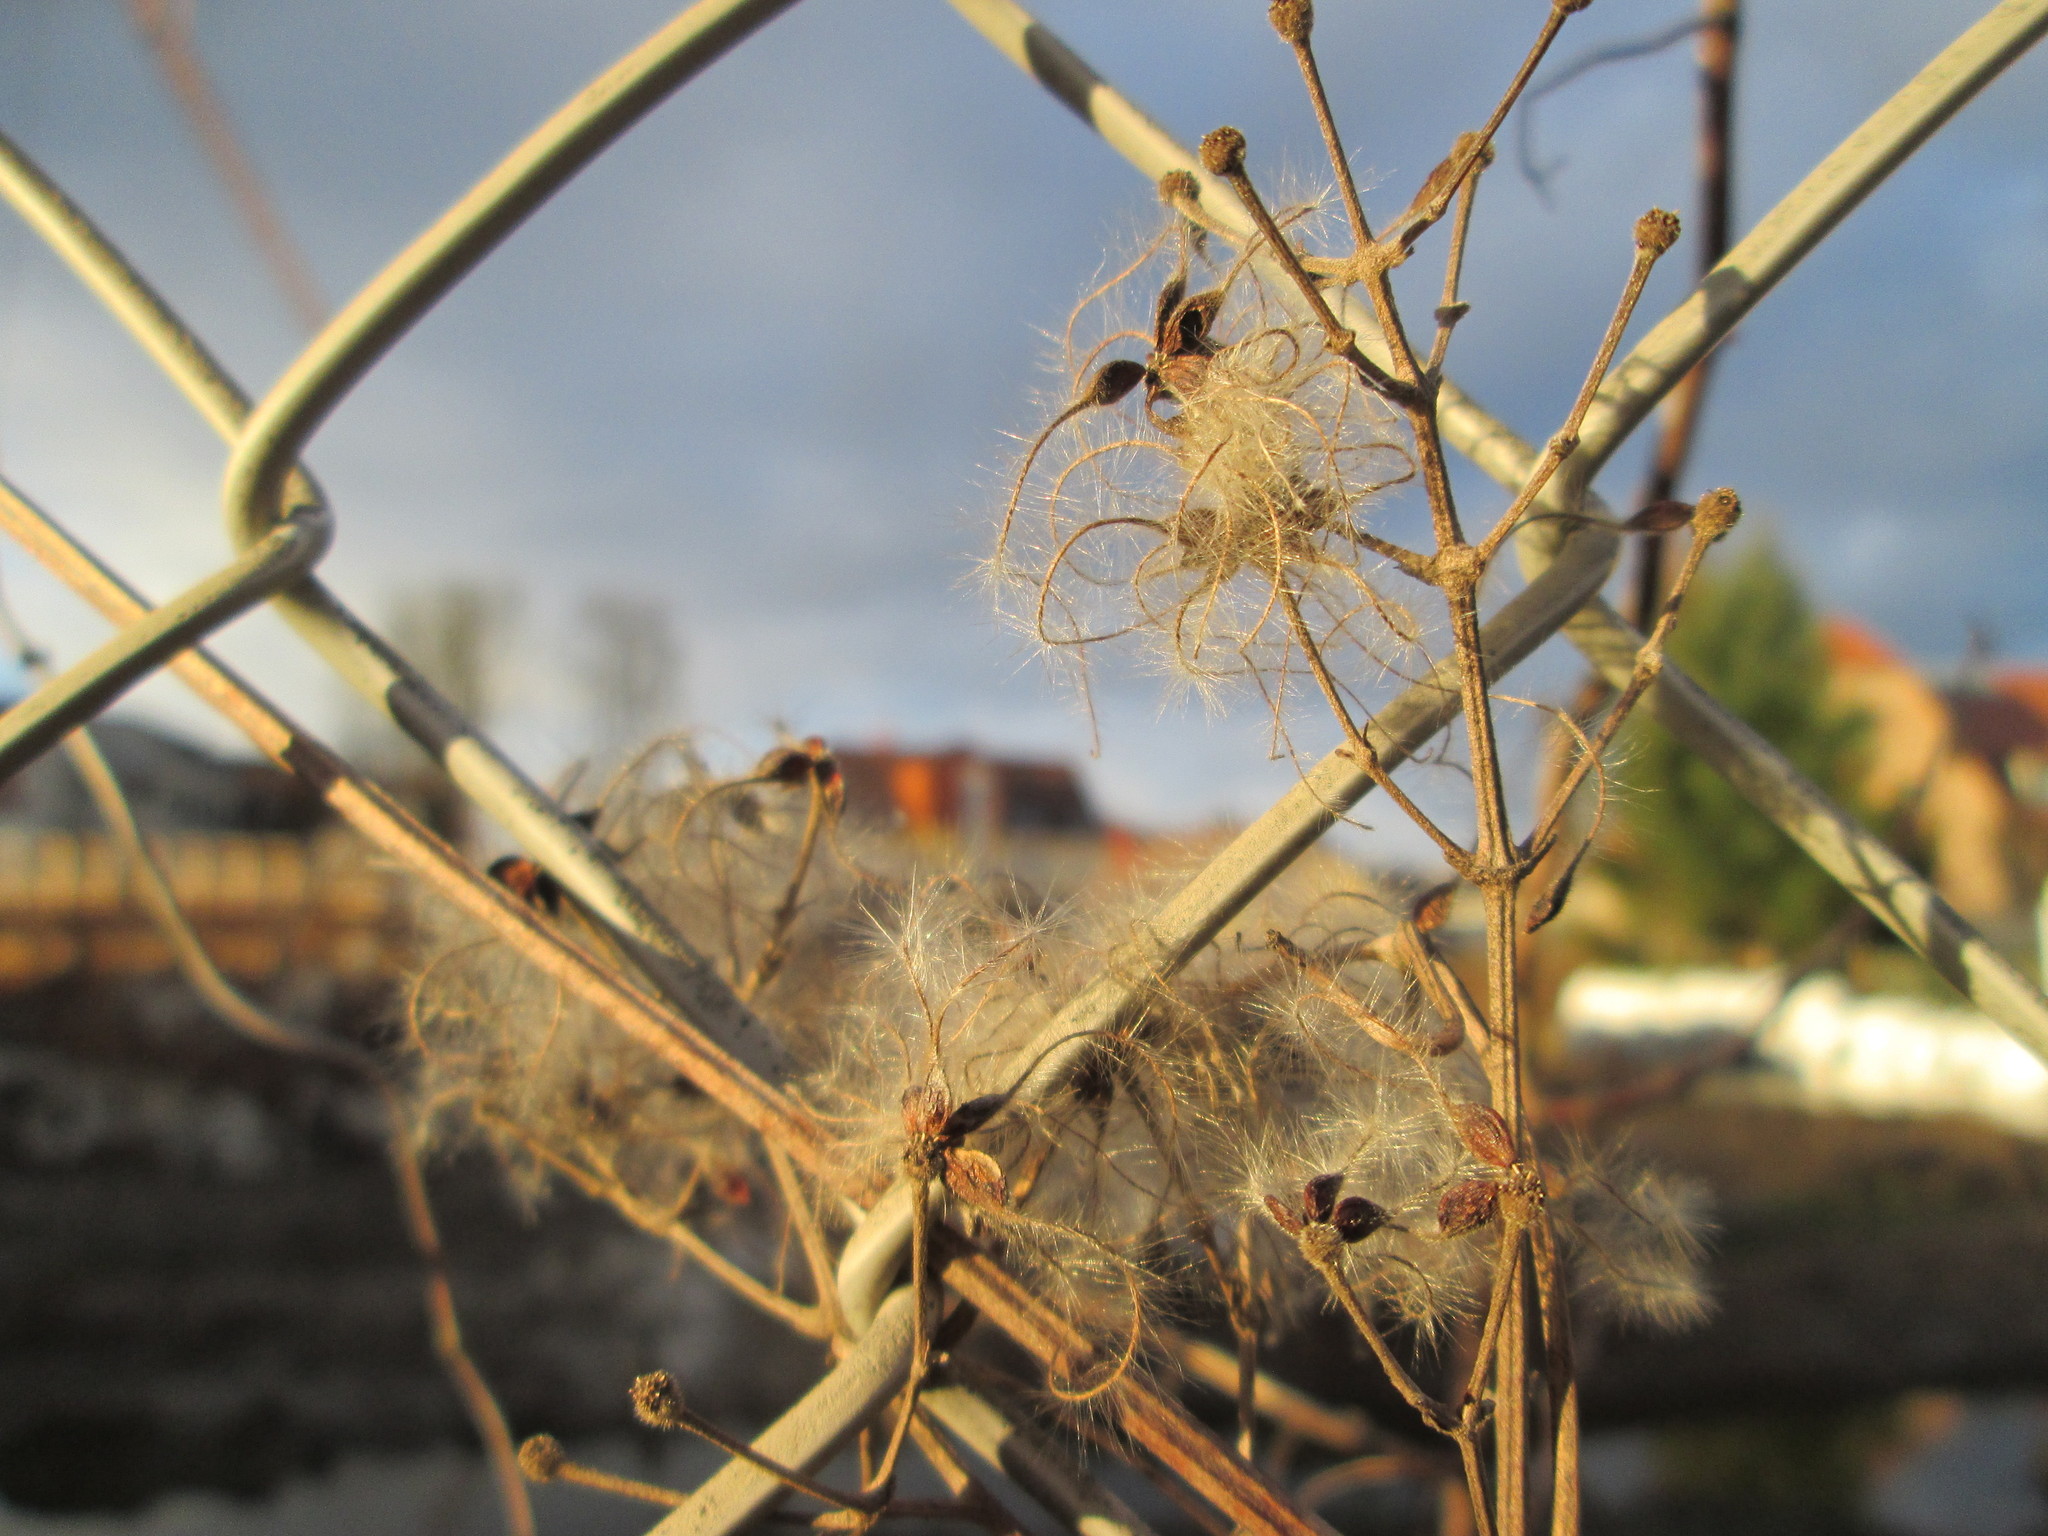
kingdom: Plantae
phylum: Tracheophyta
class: Magnoliopsida
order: Ranunculales
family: Ranunculaceae
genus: Clematis
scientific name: Clematis vitalba
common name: Evergreen clematis
